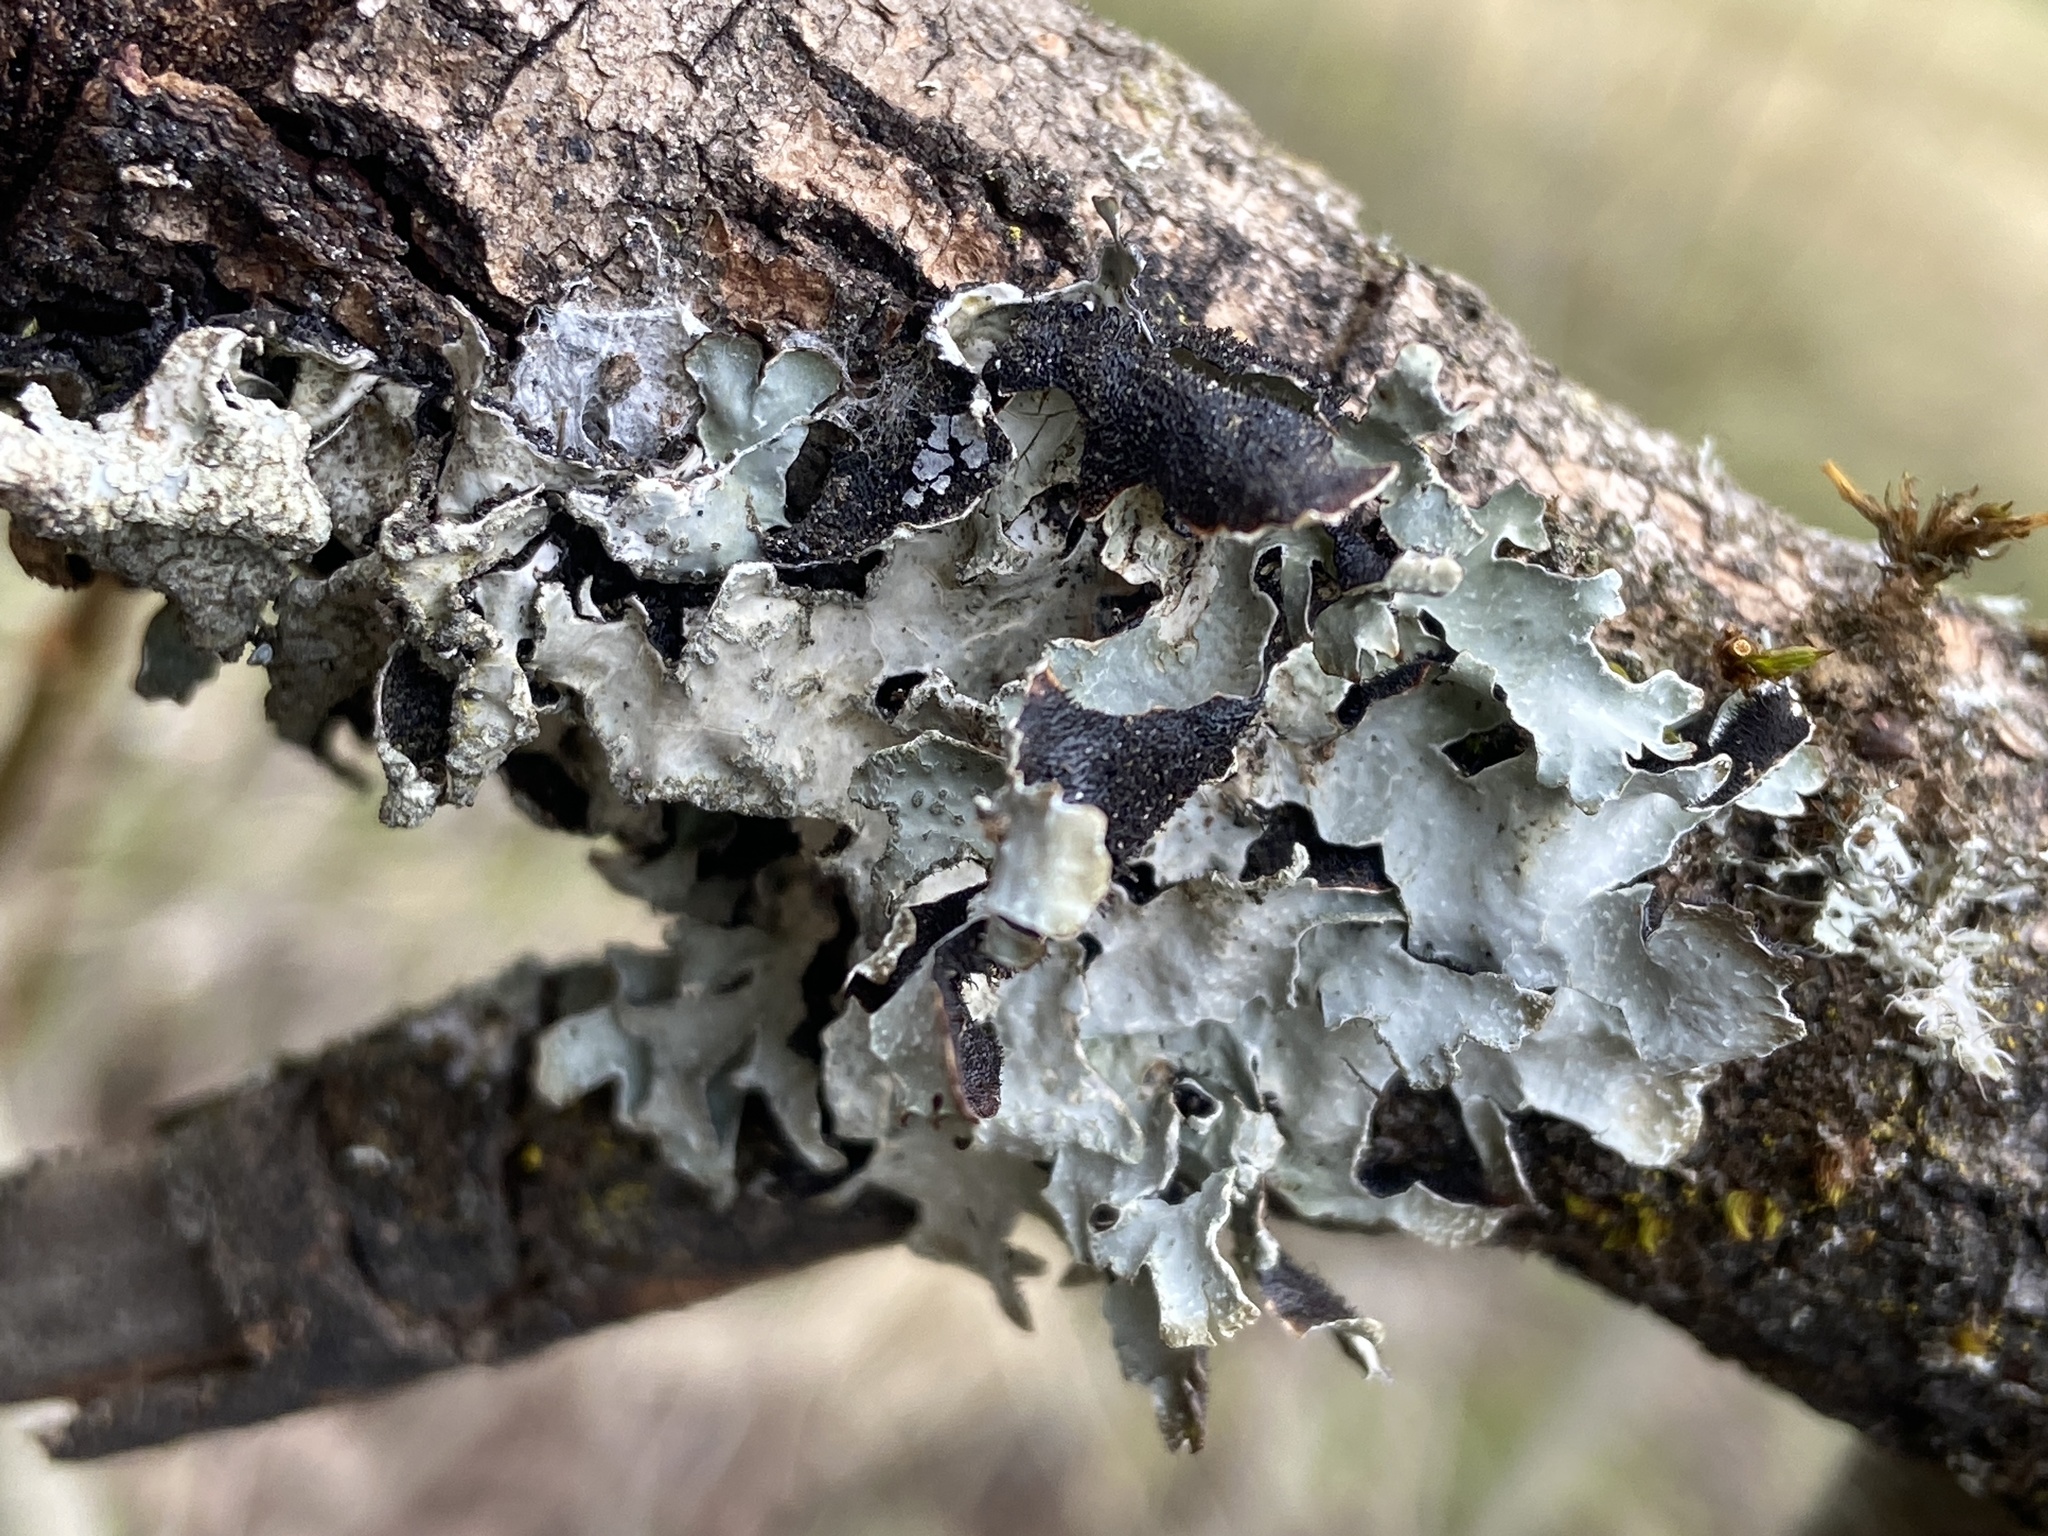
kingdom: Fungi
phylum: Ascomycota
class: Lecanoromycetes
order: Lecanorales
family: Parmeliaceae
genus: Parmelia
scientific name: Parmelia sulcata
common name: Netted shield lichen
